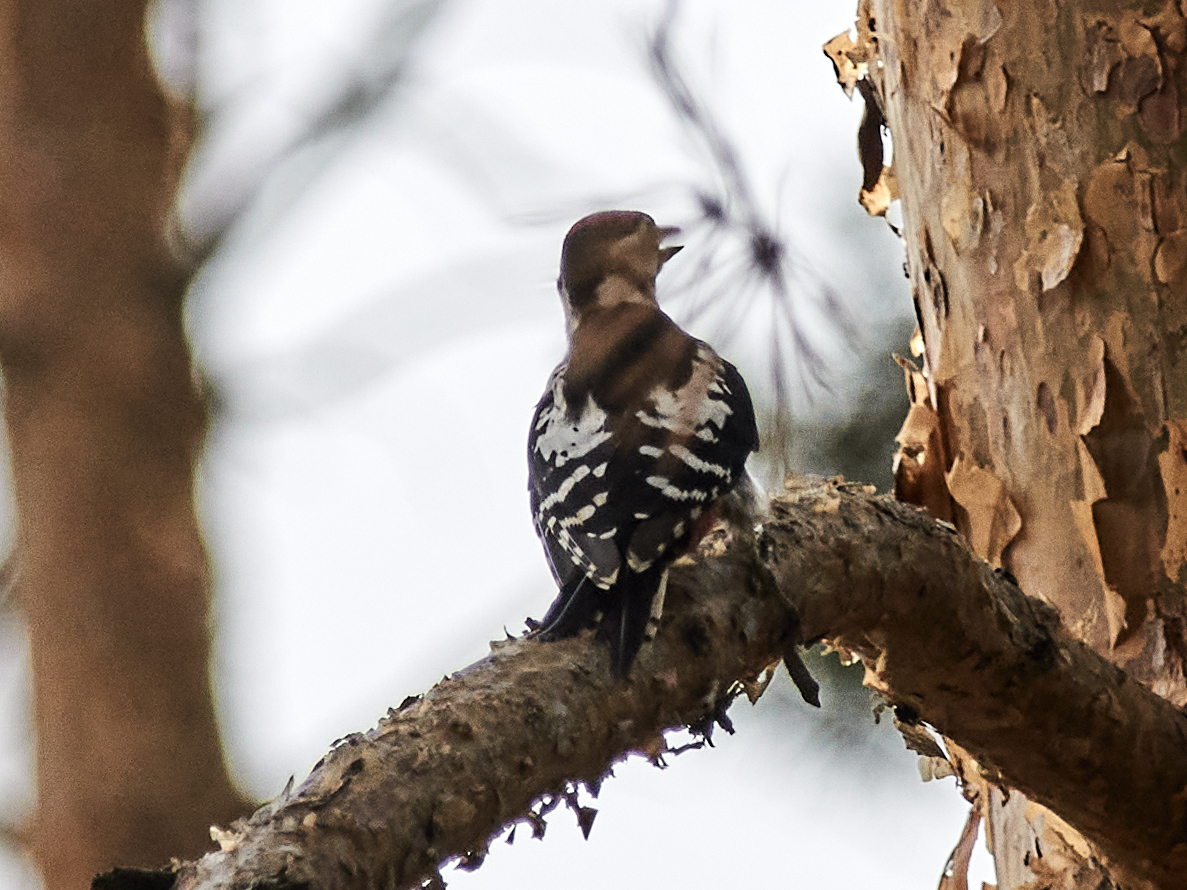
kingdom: Animalia
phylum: Chordata
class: Aves
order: Piciformes
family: Picidae
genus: Dendrocopos
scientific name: Dendrocopos major
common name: Great spotted woodpecker
